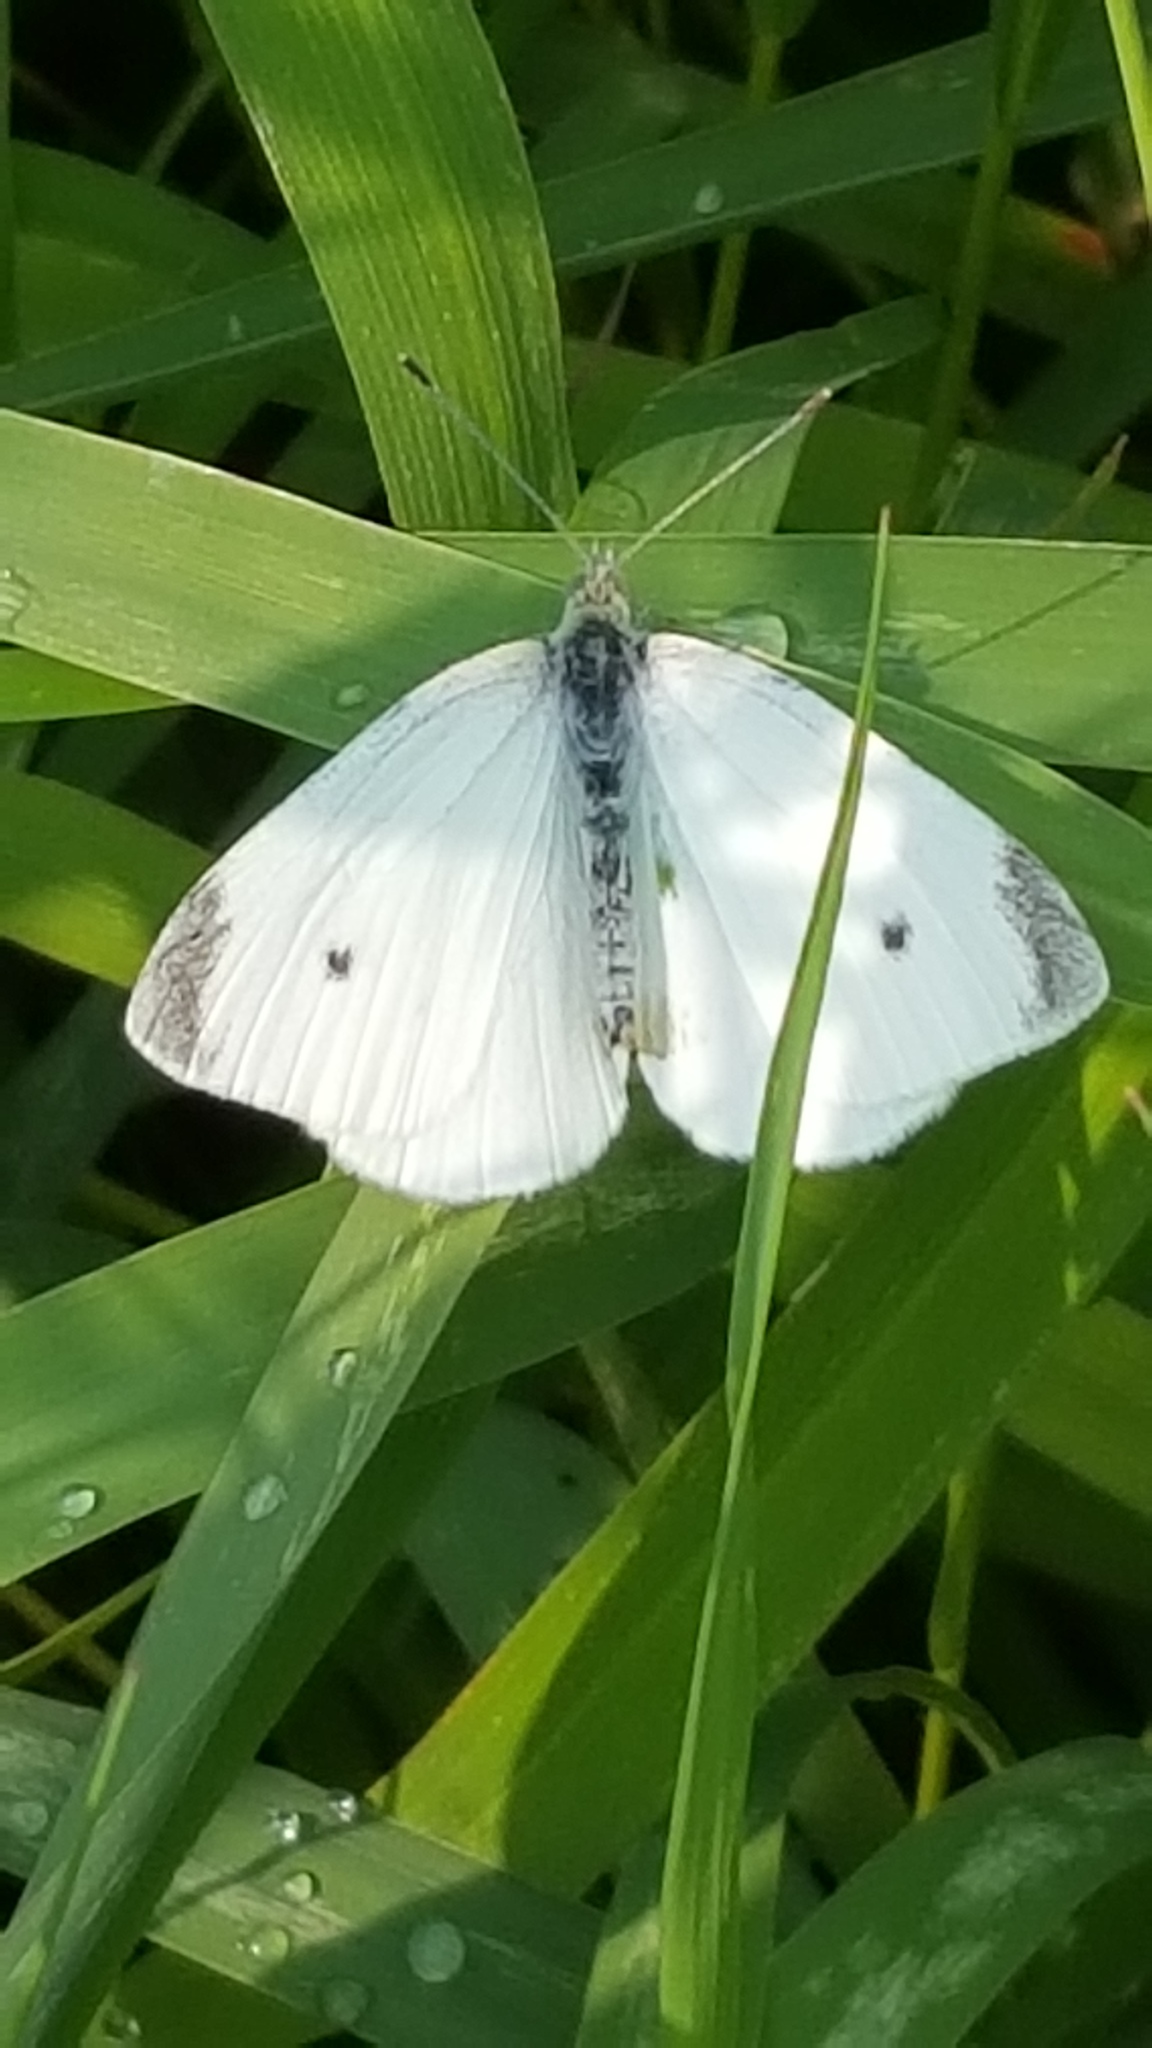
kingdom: Animalia
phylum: Arthropoda
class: Insecta
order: Lepidoptera
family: Pieridae
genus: Pieris
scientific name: Pieris rapae
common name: Small white
